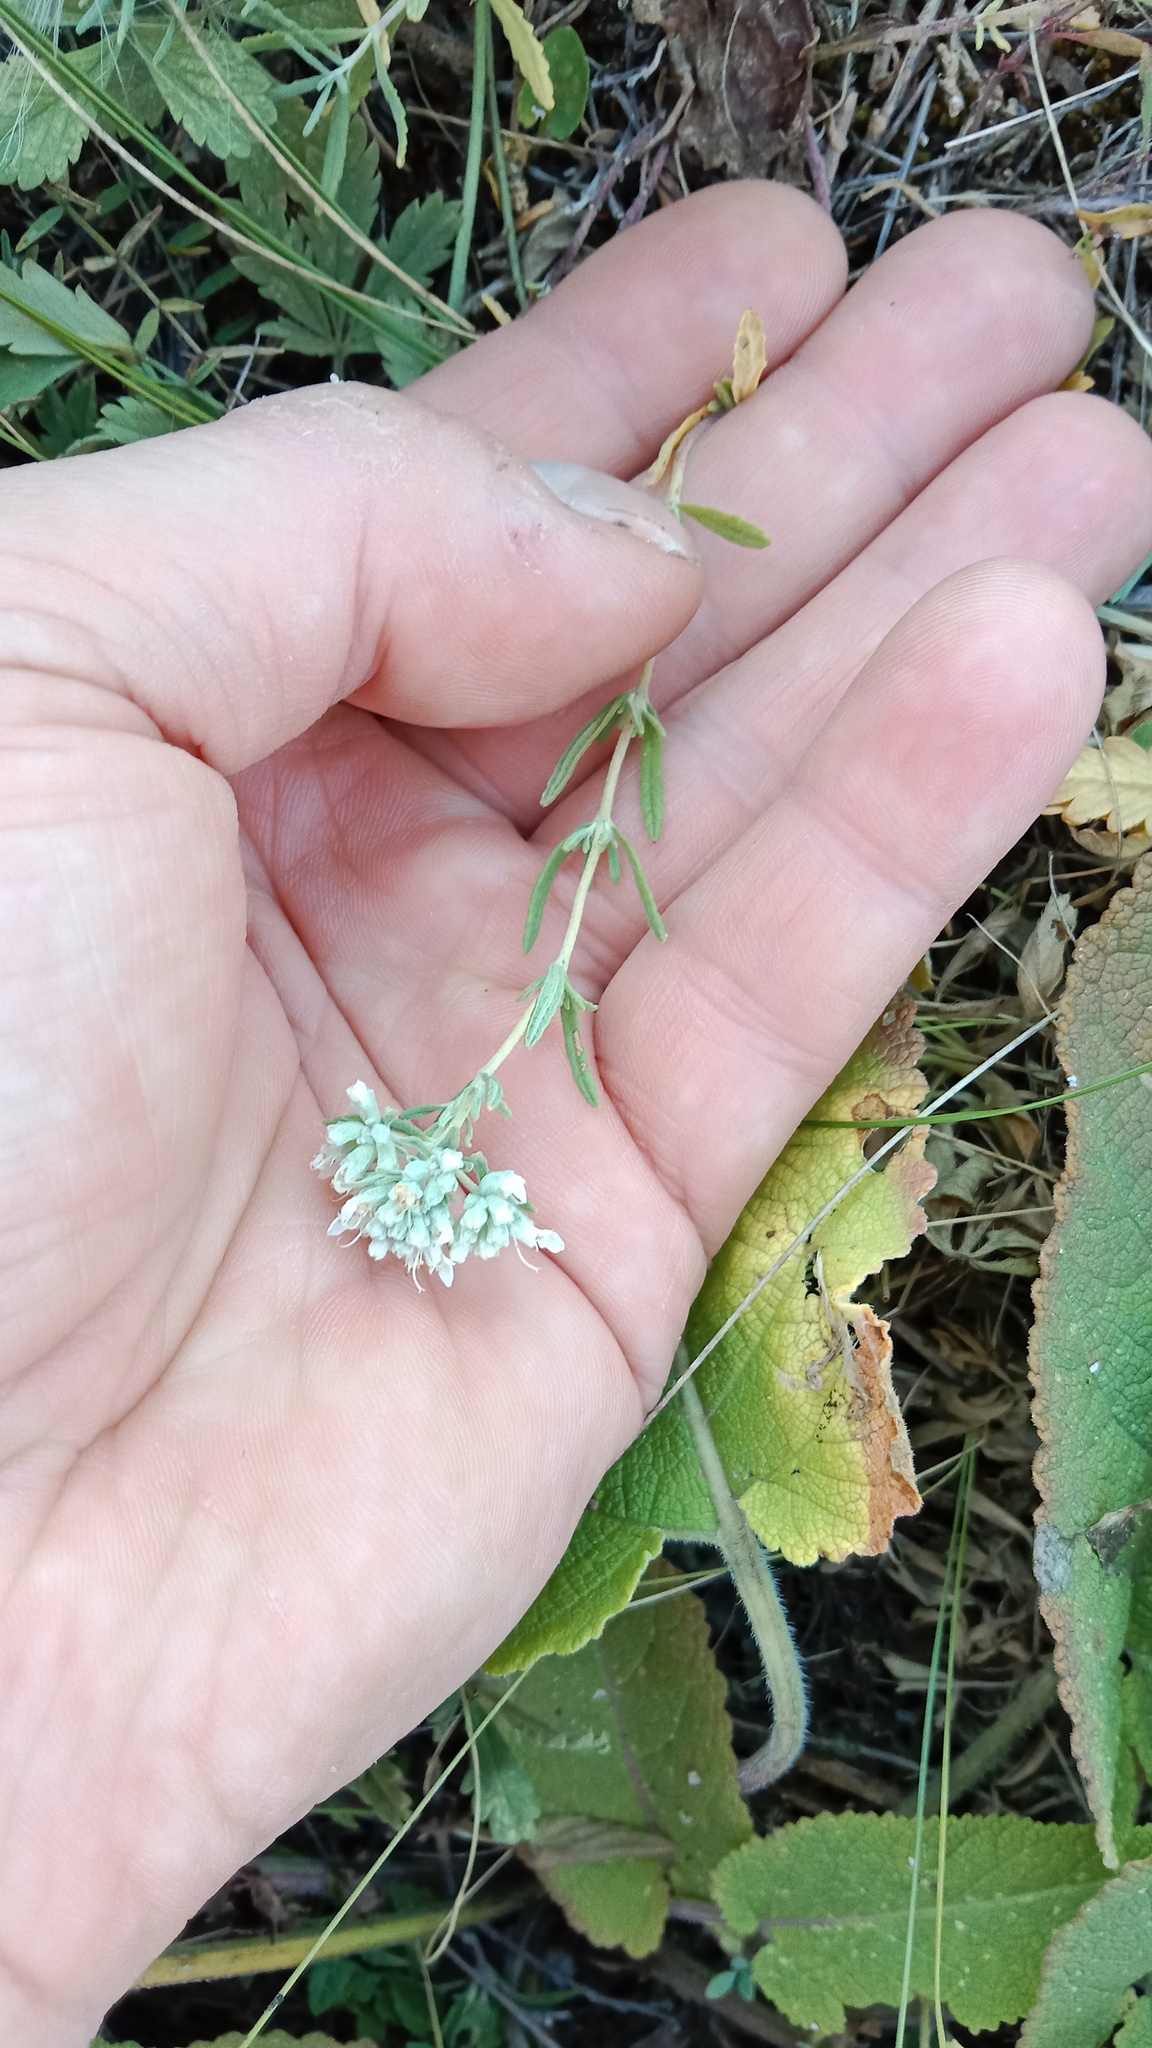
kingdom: Plantae
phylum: Tracheophyta
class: Magnoliopsida
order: Lamiales
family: Lamiaceae
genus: Teucrium
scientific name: Teucrium polium
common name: Poley
